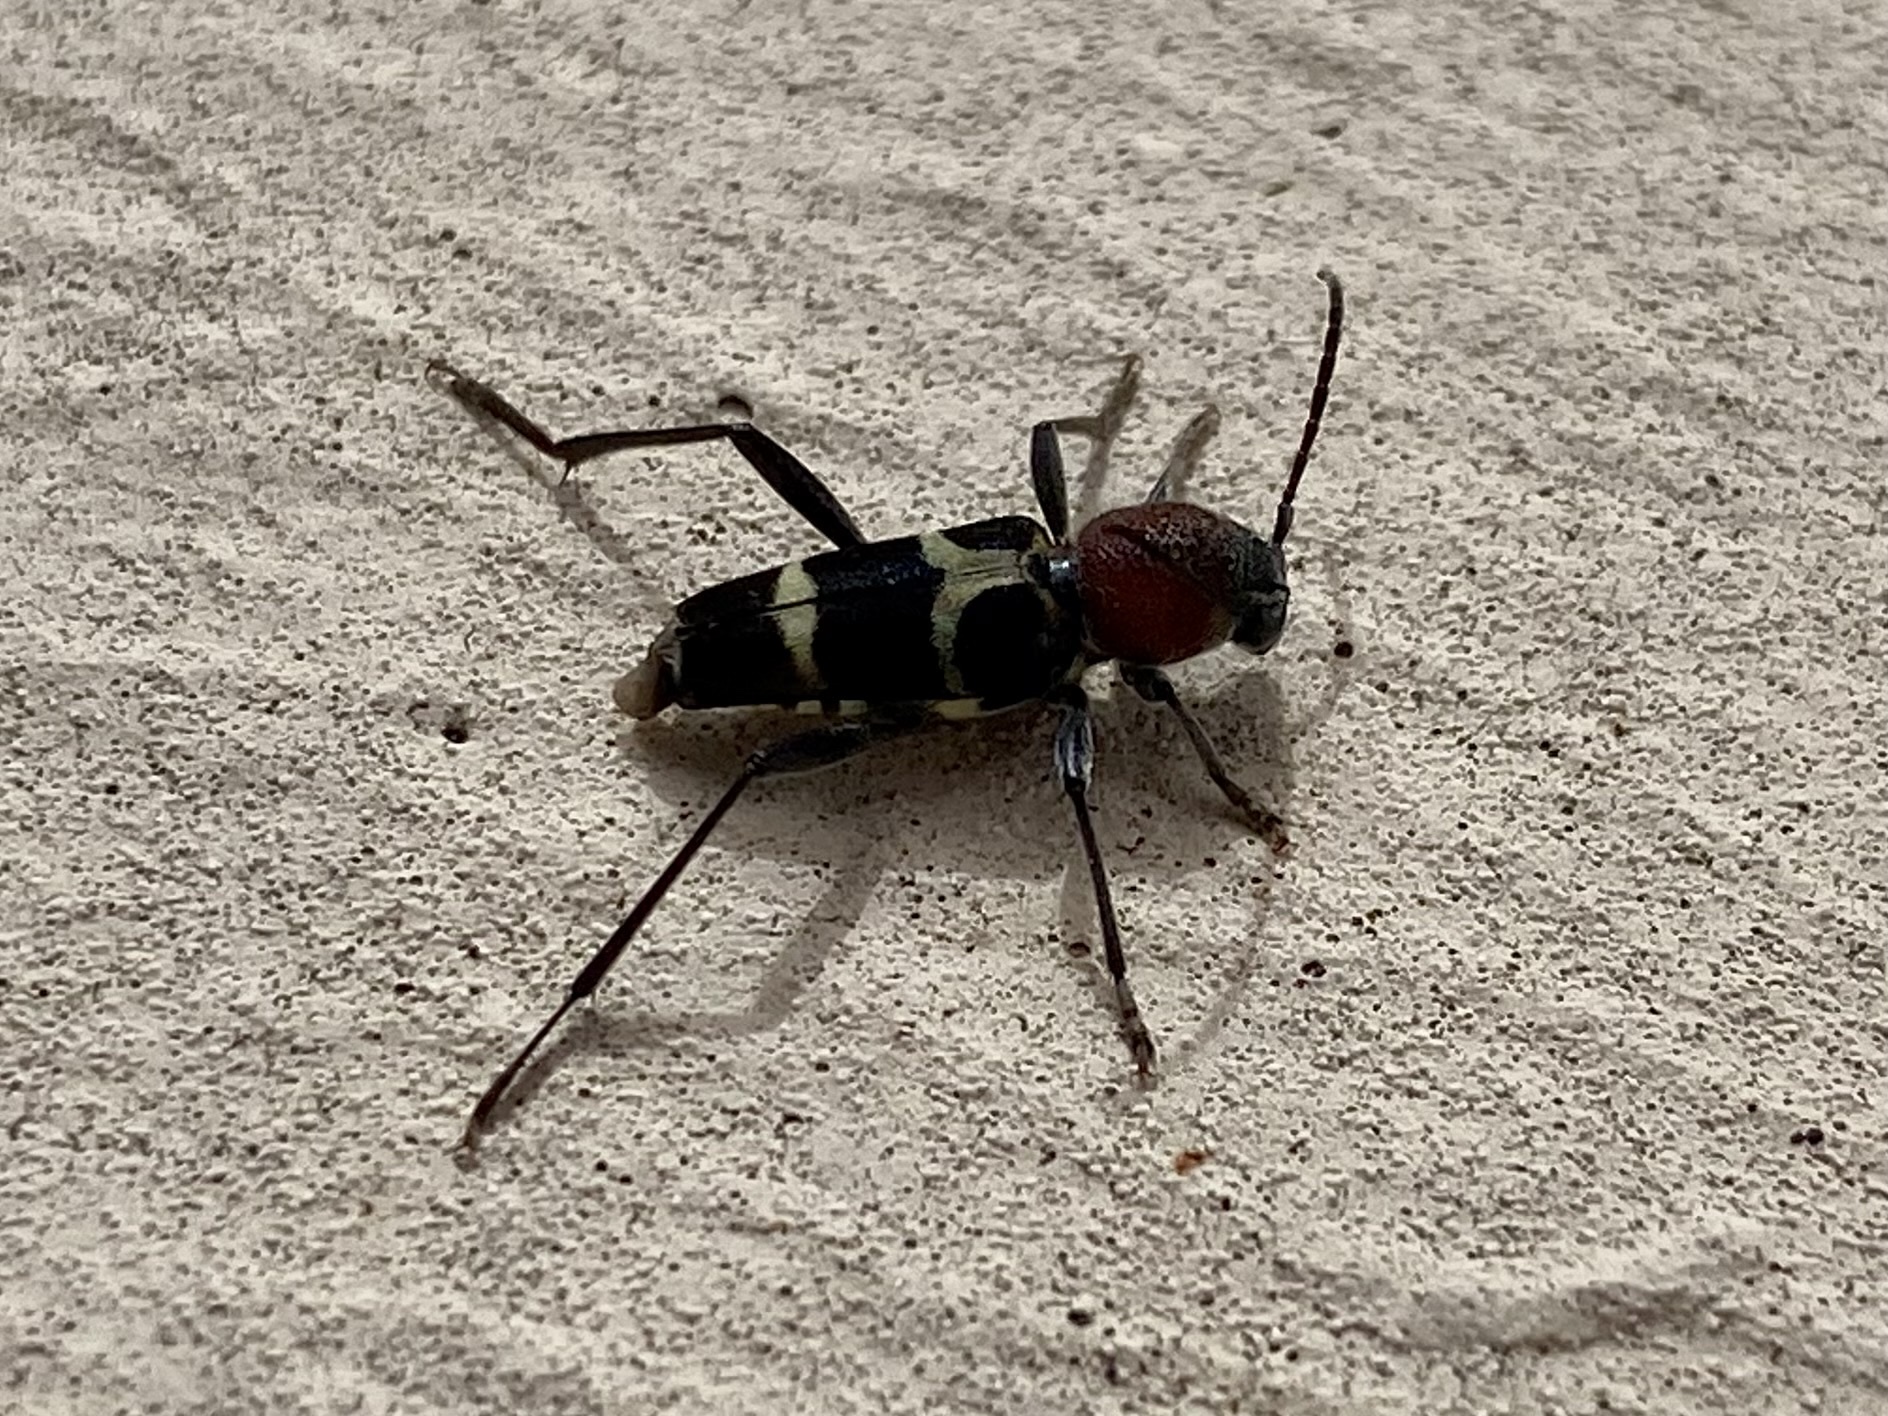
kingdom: Animalia
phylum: Arthropoda
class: Insecta
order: Coleoptera
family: Cerambycidae
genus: Xylotrechus
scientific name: Xylotrechus rufilius
